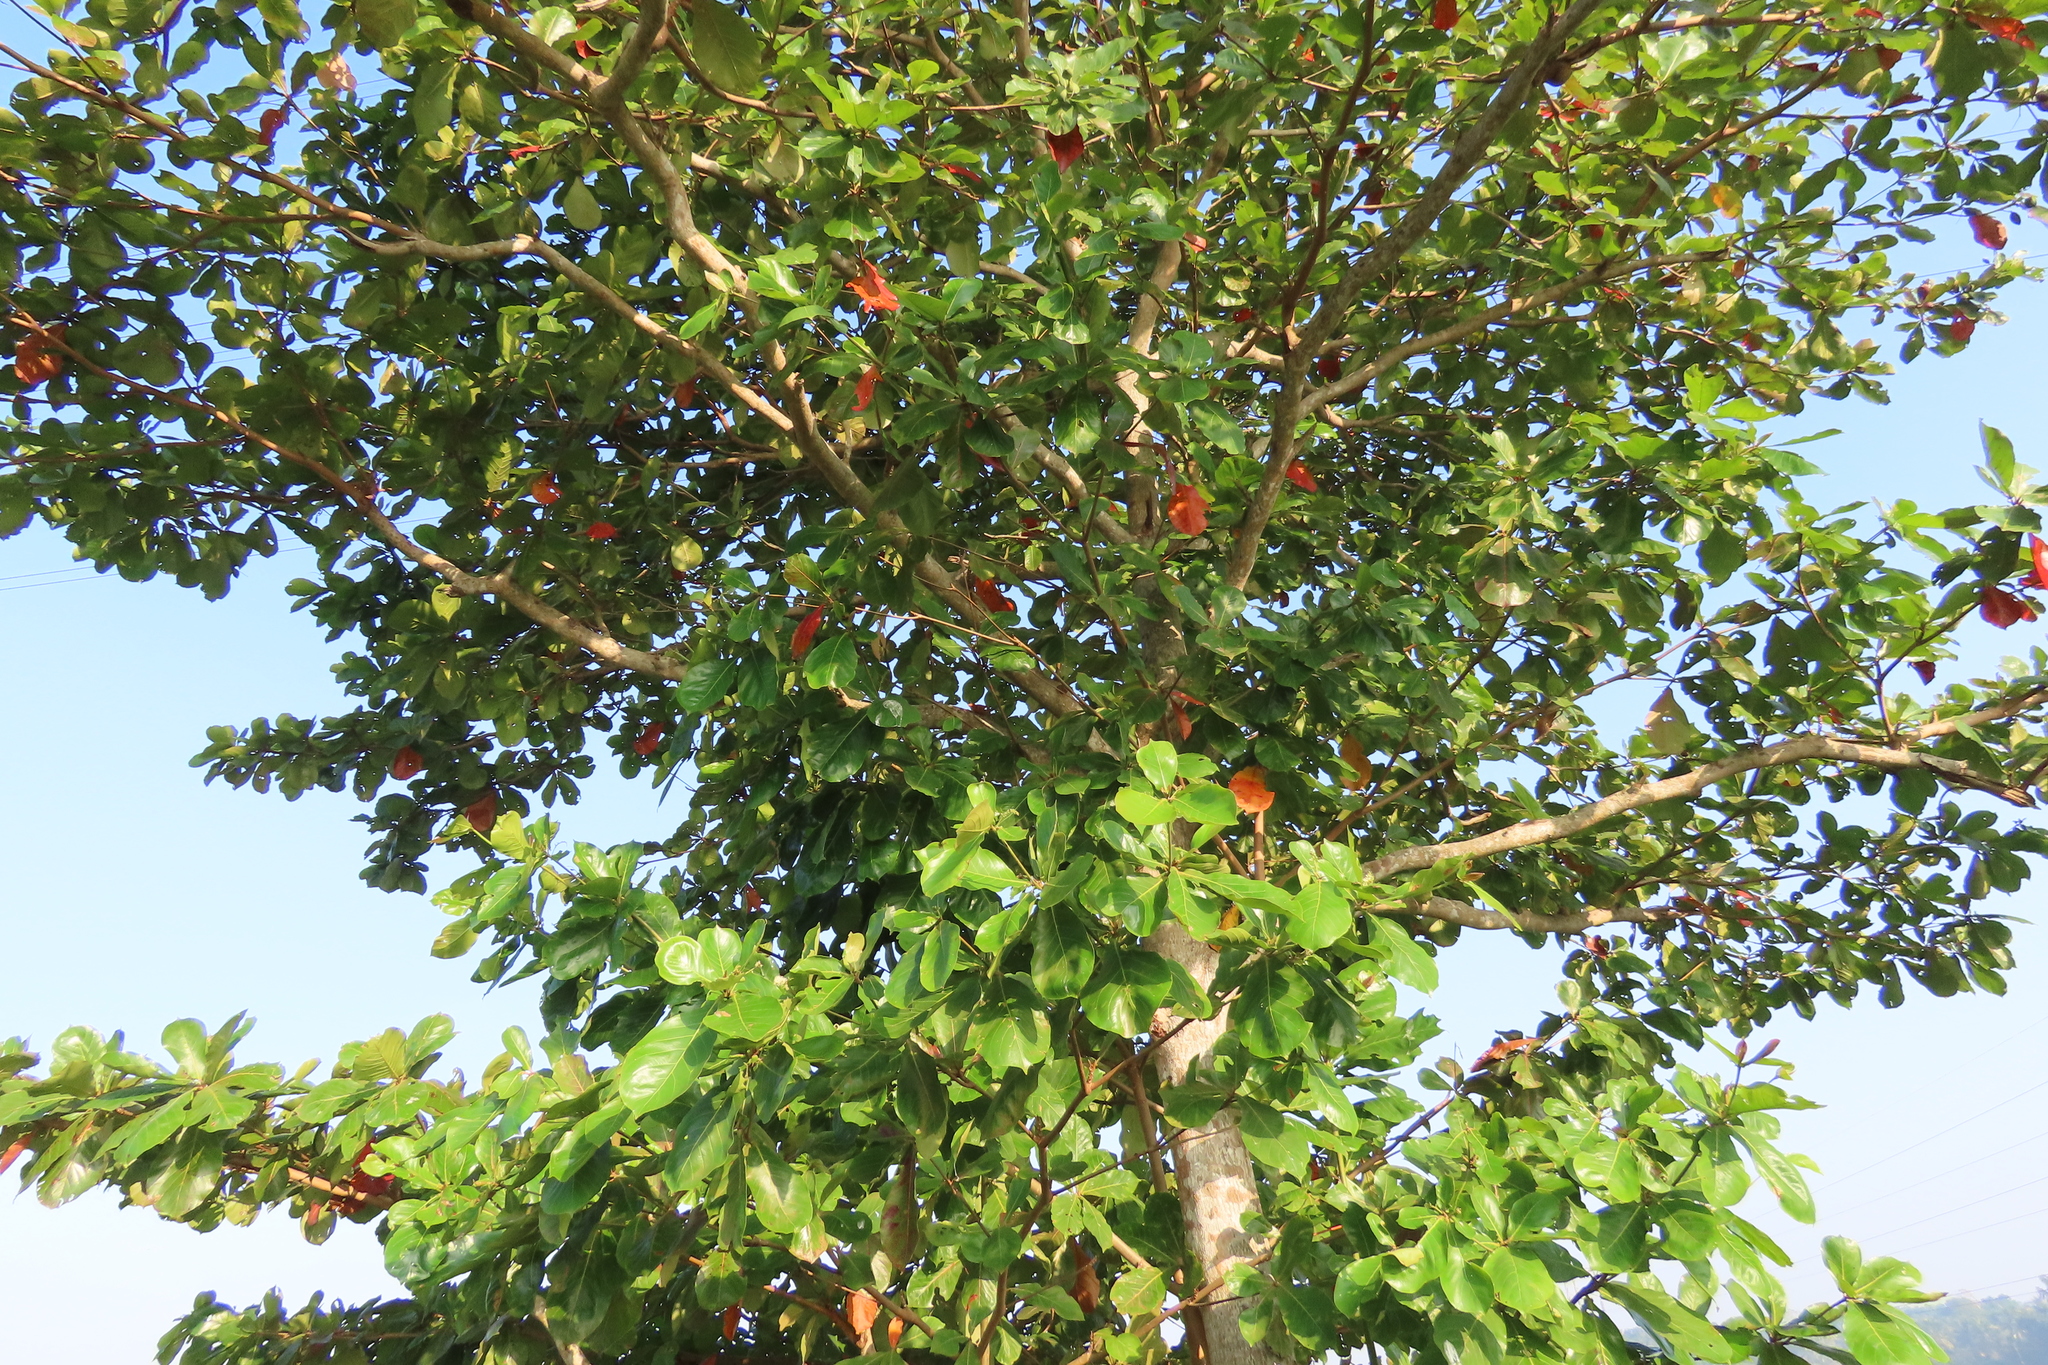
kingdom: Plantae
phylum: Tracheophyta
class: Magnoliopsida
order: Myrtales
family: Combretaceae
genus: Terminalia
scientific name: Terminalia catappa
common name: Tropical almond
